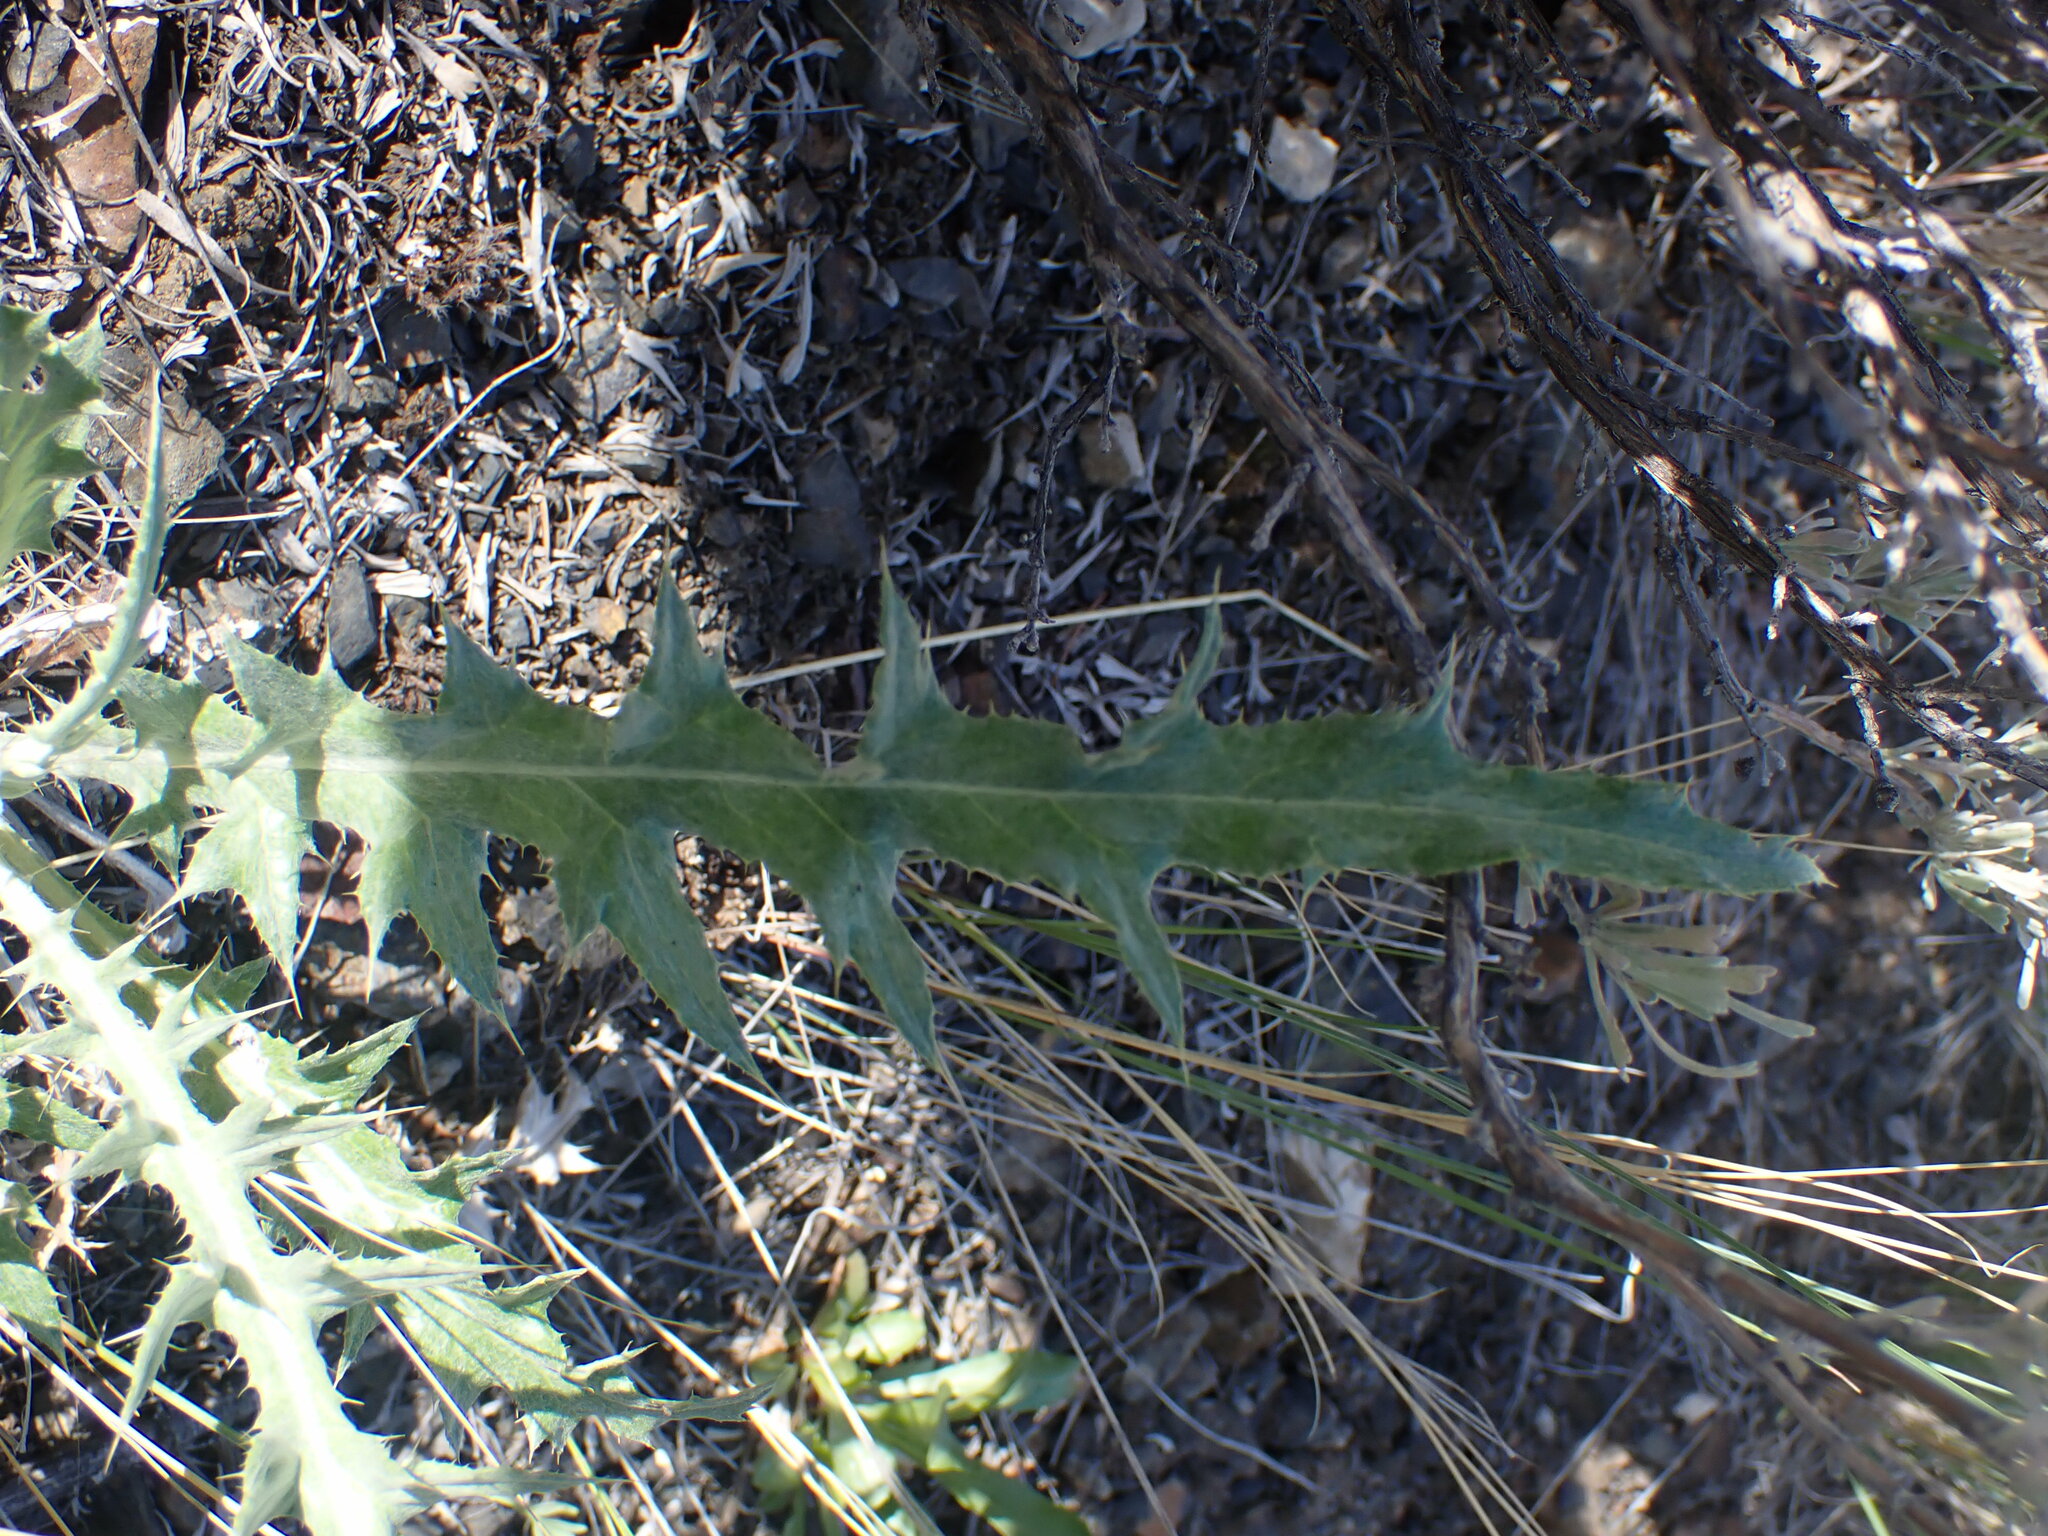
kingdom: Plantae
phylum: Tracheophyta
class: Magnoliopsida
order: Asterales
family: Asteraceae
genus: Cirsium
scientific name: Cirsium undulatum
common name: Pasture thistle
